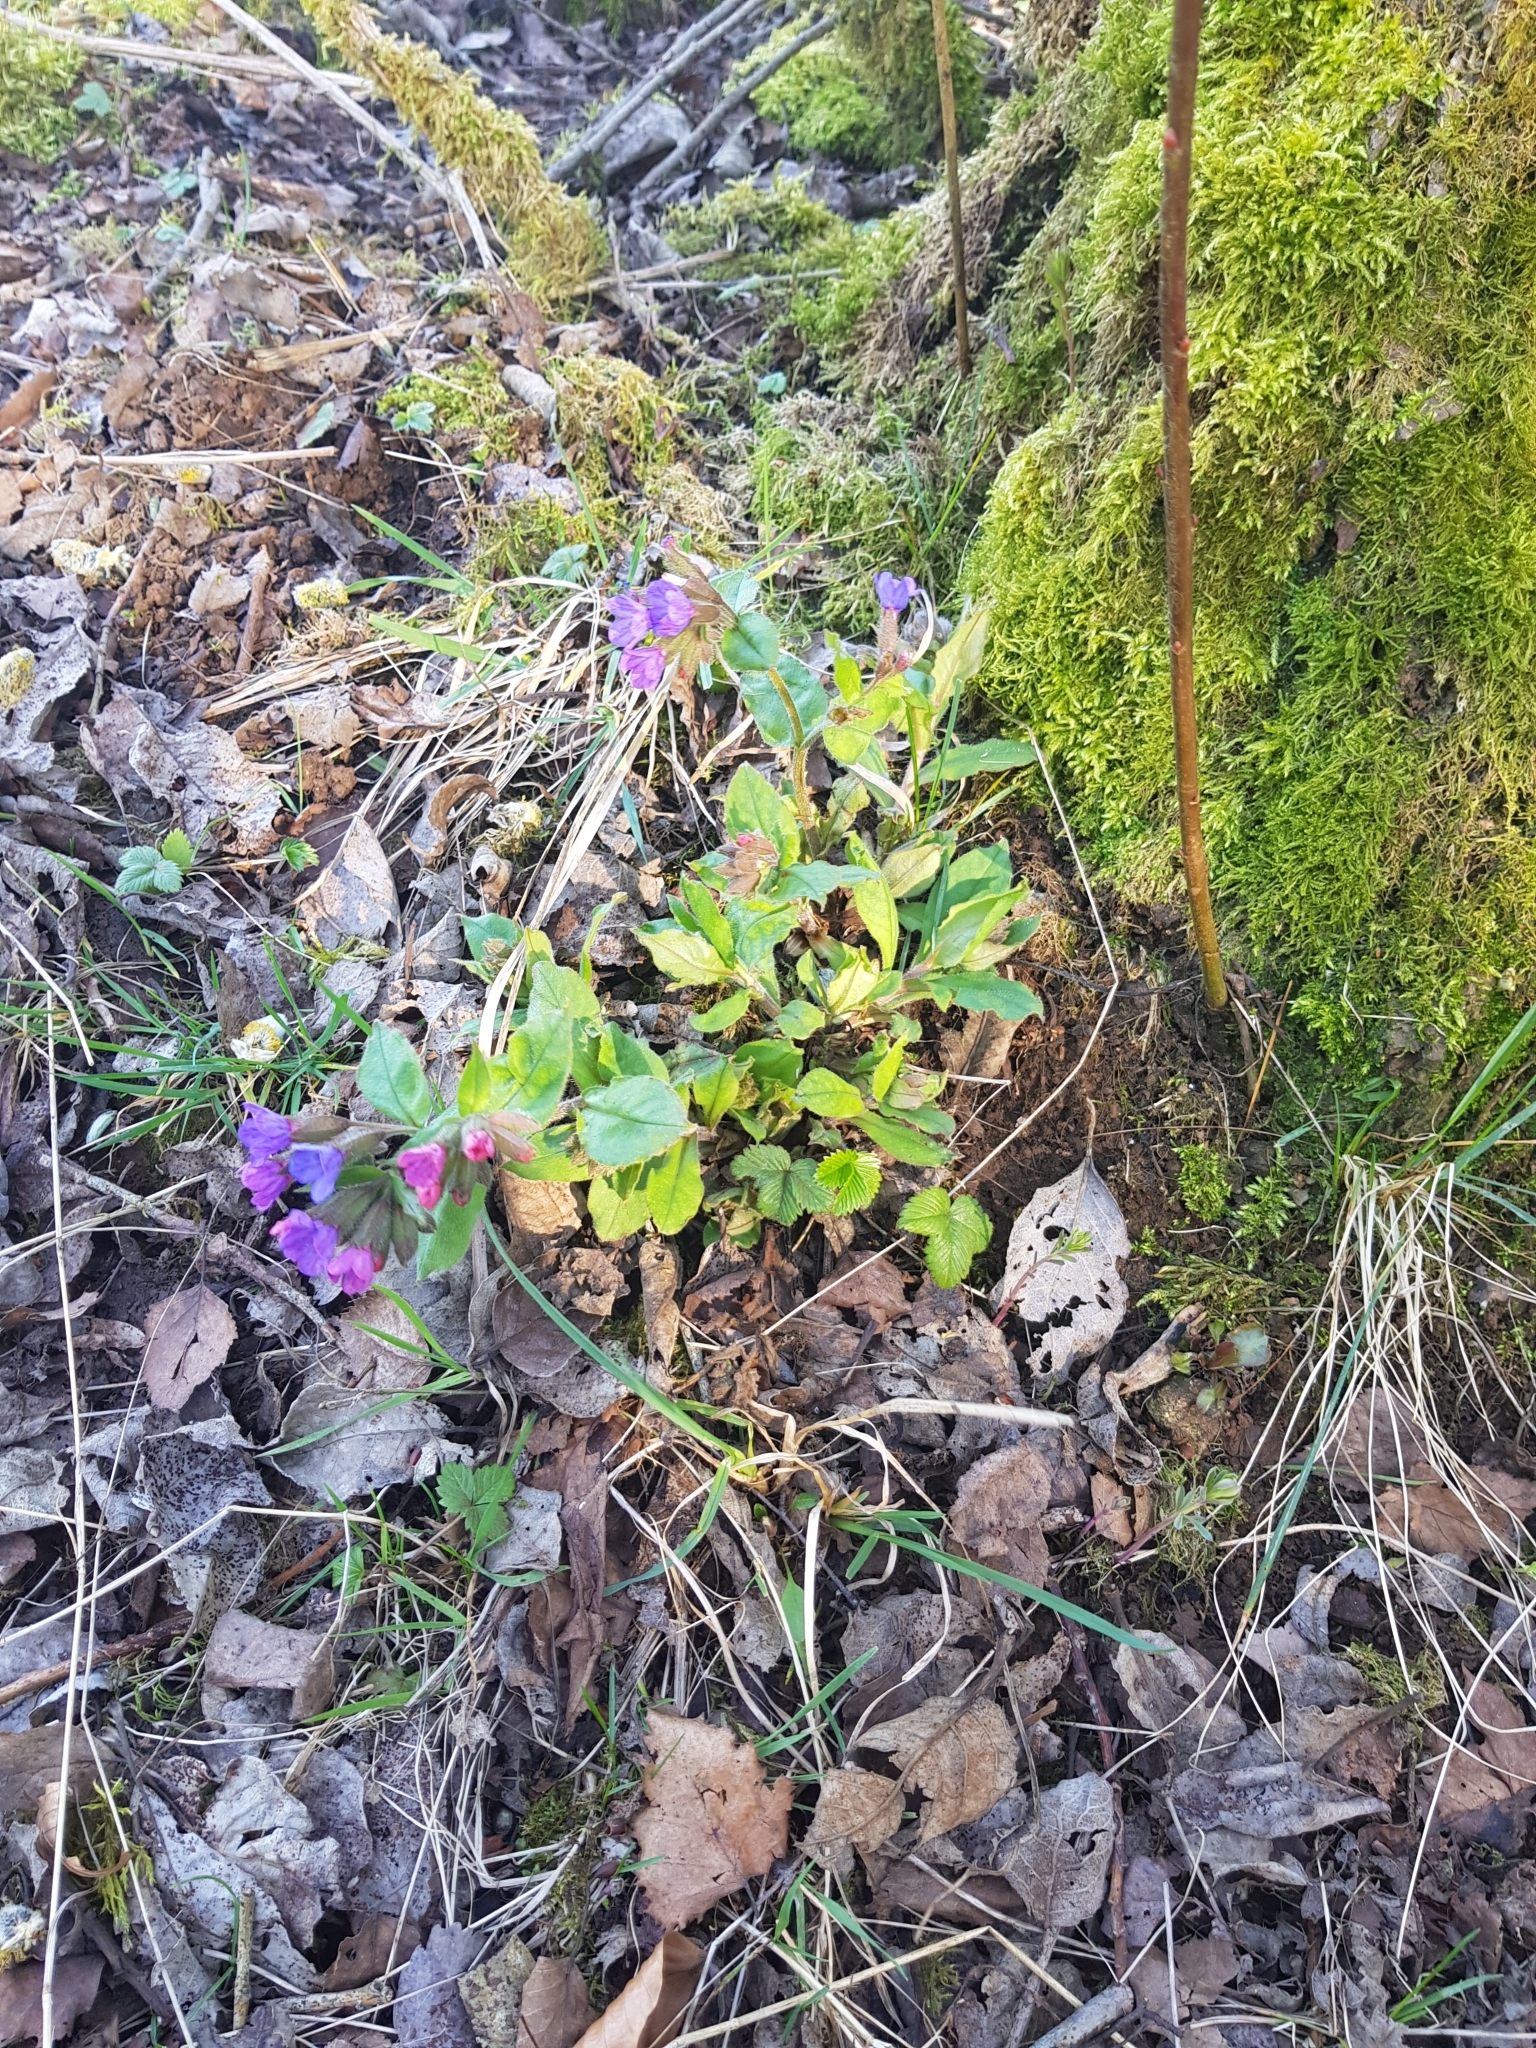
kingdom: Plantae
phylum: Tracheophyta
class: Magnoliopsida
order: Boraginales
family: Boraginaceae
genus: Pulmonaria
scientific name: Pulmonaria obscura
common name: Suffolk lungwort
